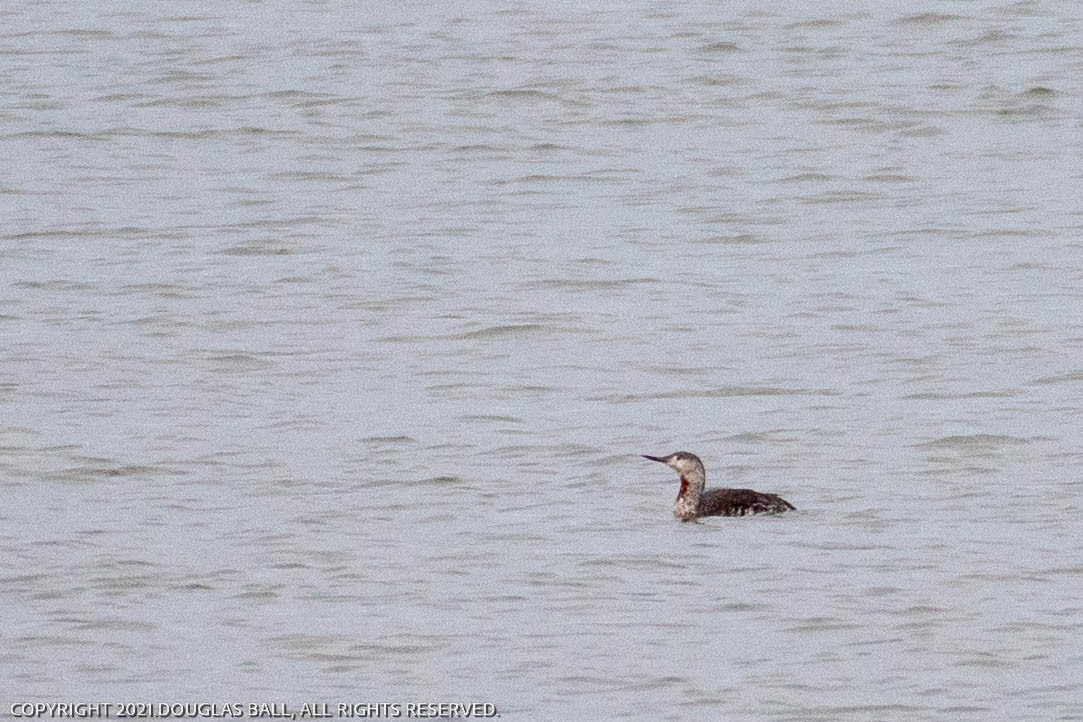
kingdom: Animalia
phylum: Chordata
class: Aves
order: Gaviiformes
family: Gaviidae
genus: Gavia
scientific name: Gavia stellata
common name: Red-throated loon
